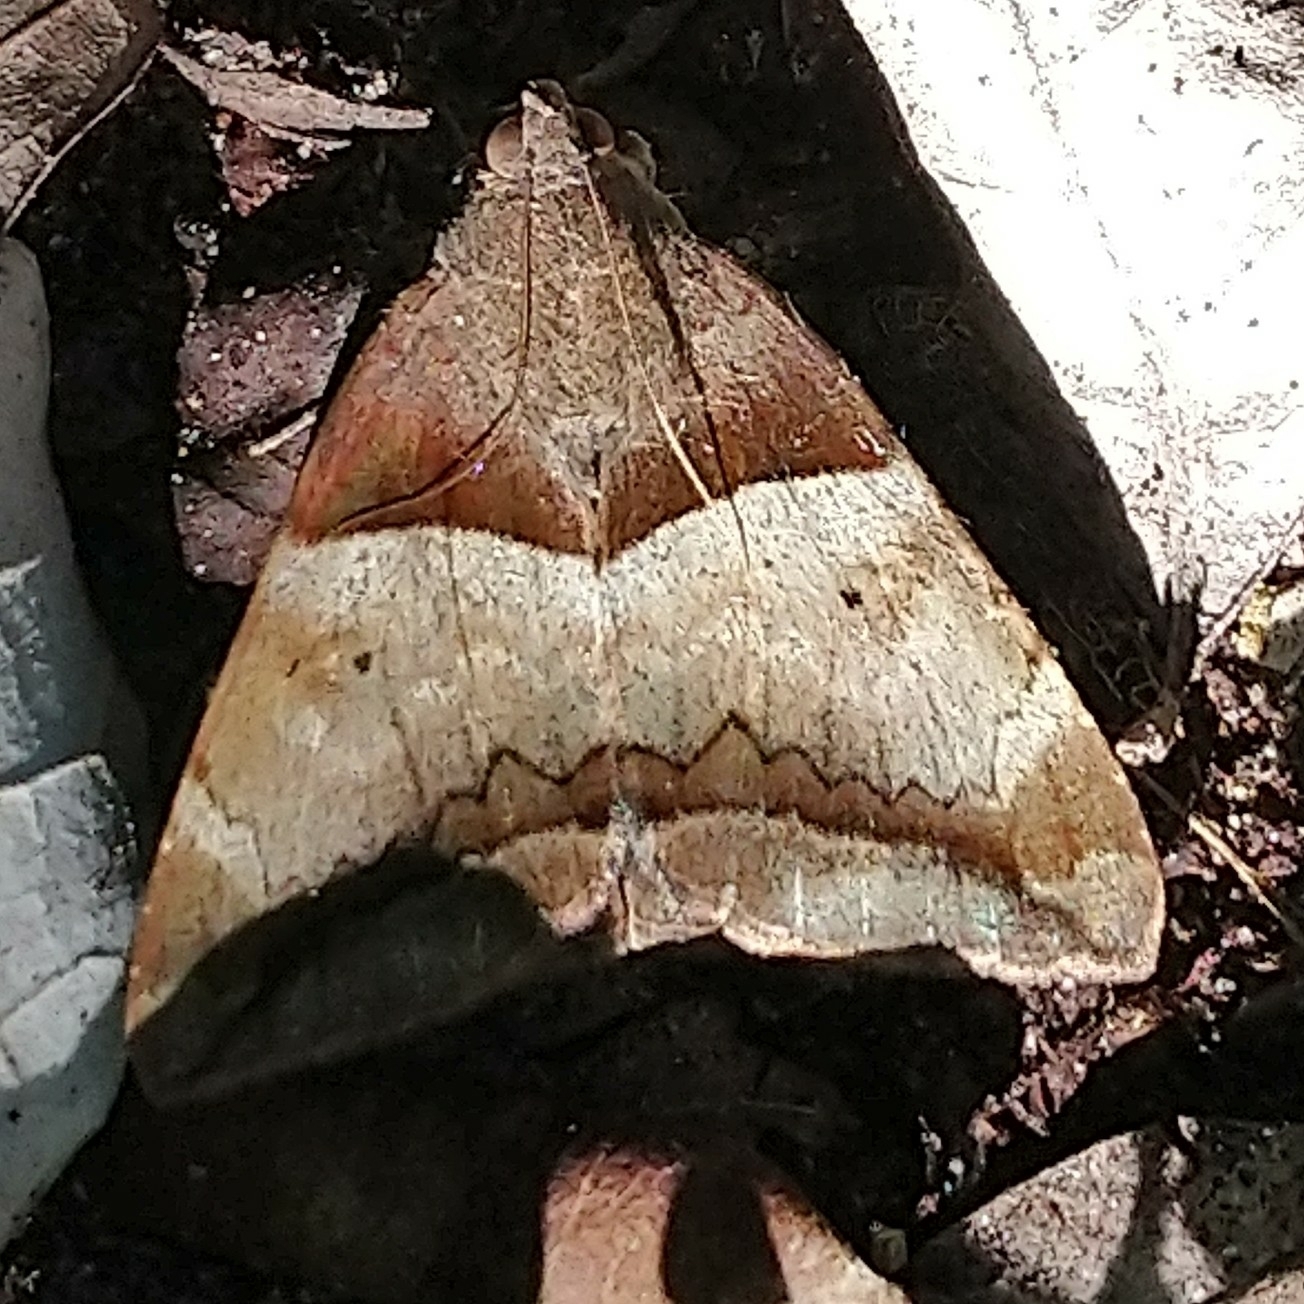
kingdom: Animalia
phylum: Arthropoda
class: Insecta
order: Lepidoptera
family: Erebidae
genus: Achaea
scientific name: Achaea lienardi
